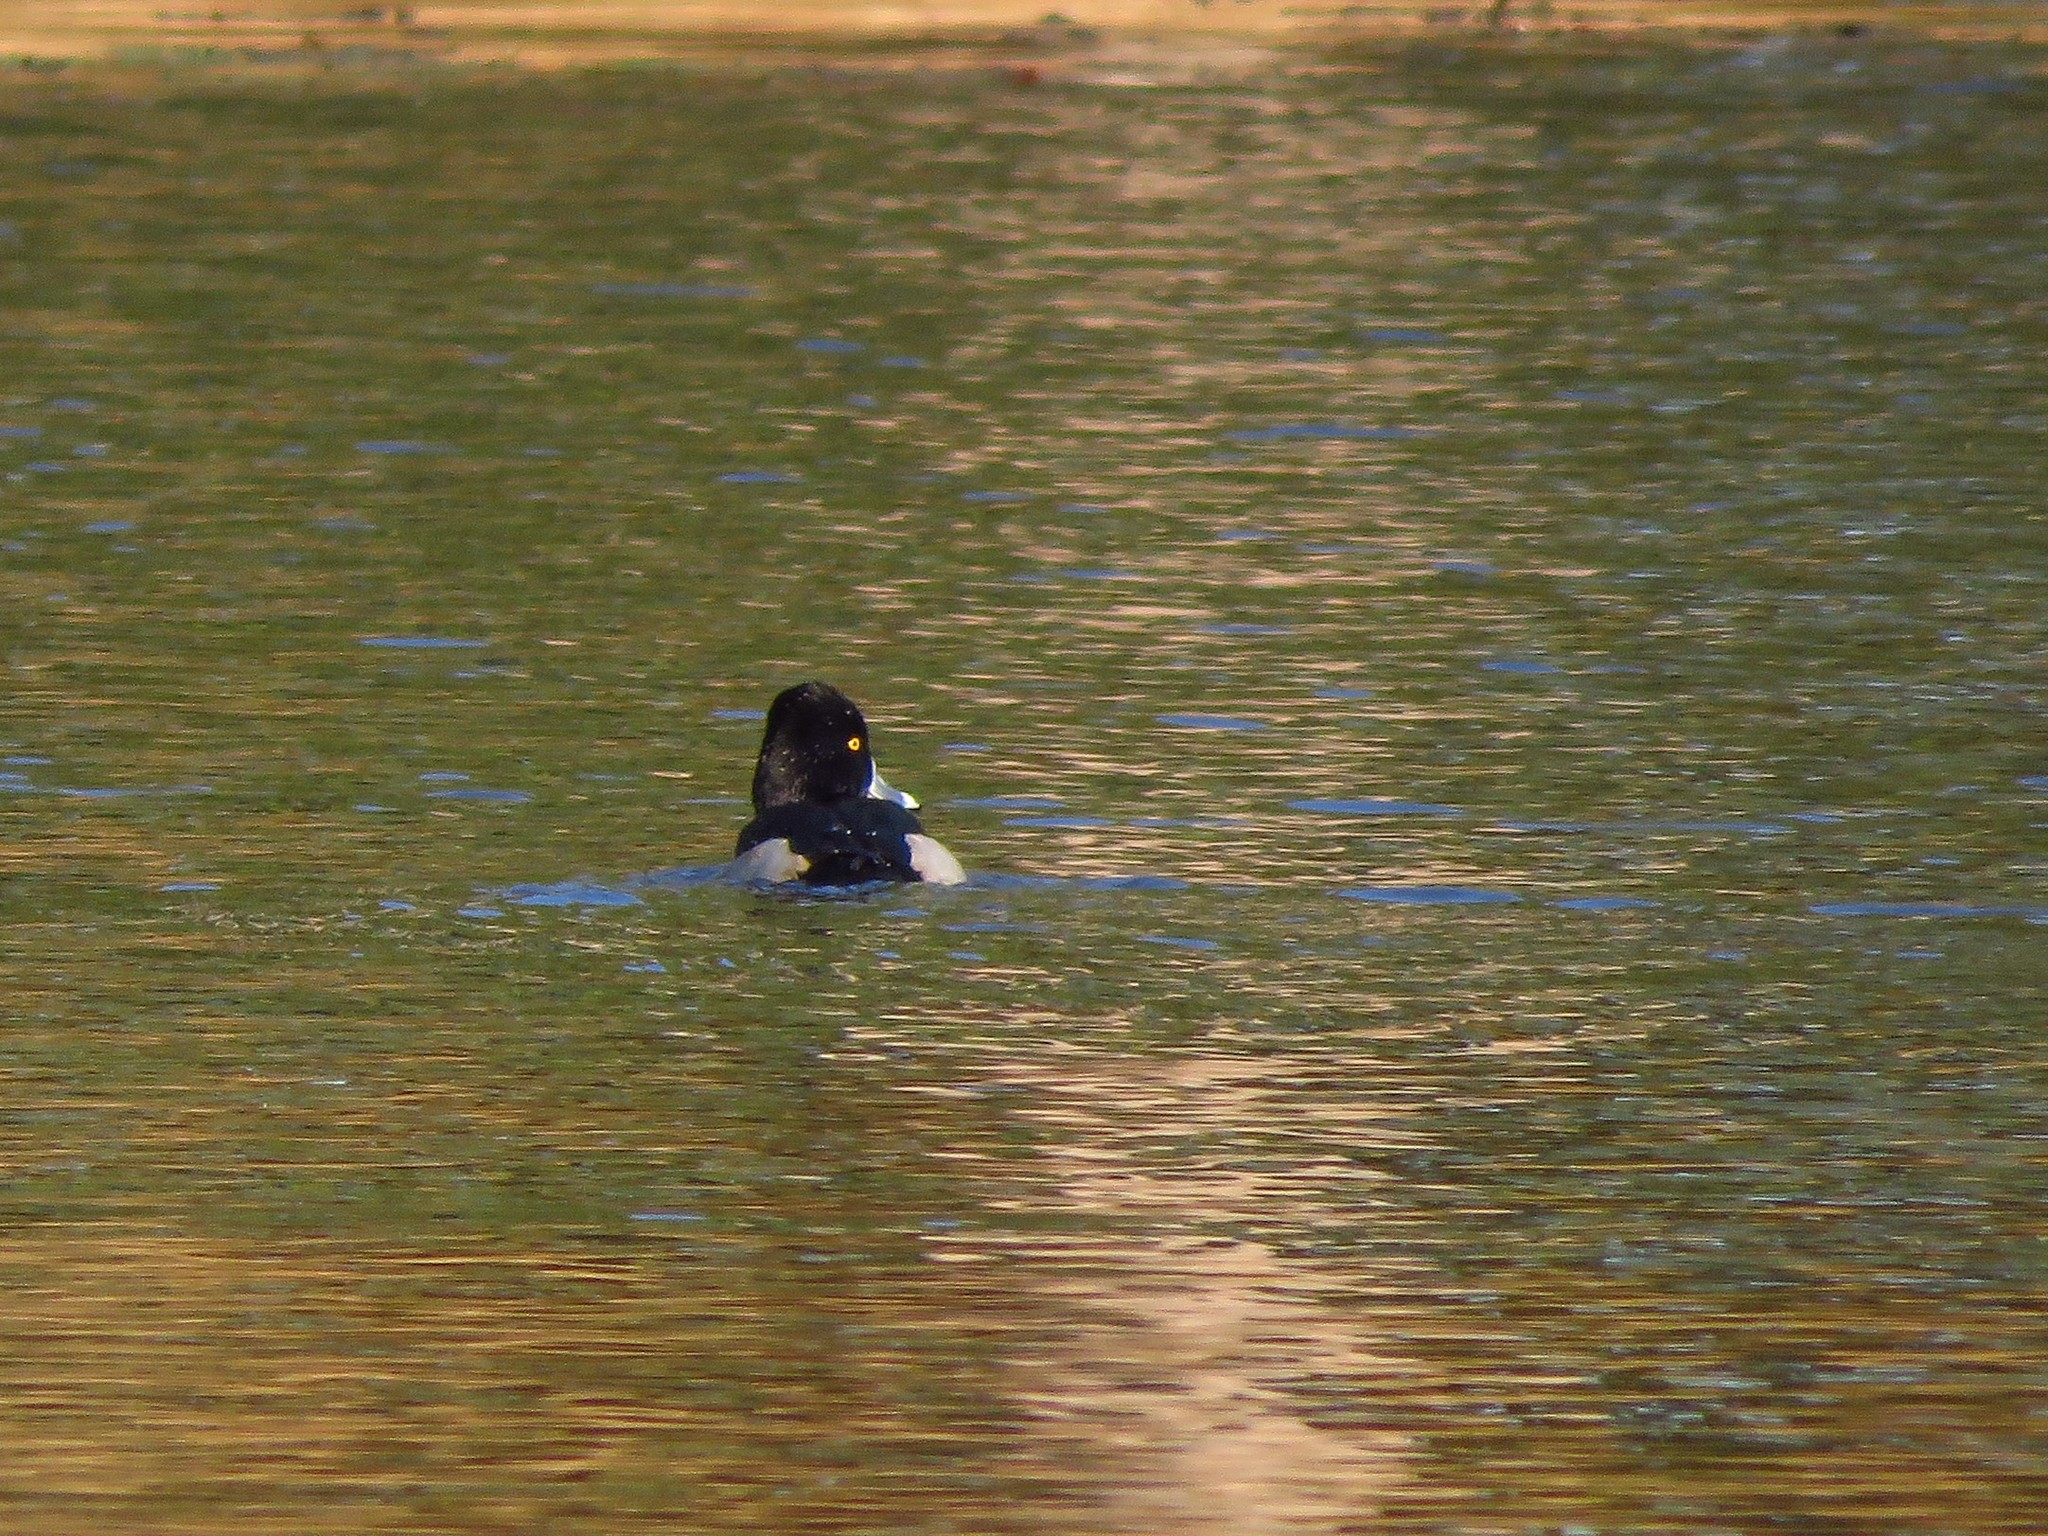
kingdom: Animalia
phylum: Chordata
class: Aves
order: Anseriformes
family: Anatidae
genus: Aythya
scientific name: Aythya collaris
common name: Ring-necked duck
